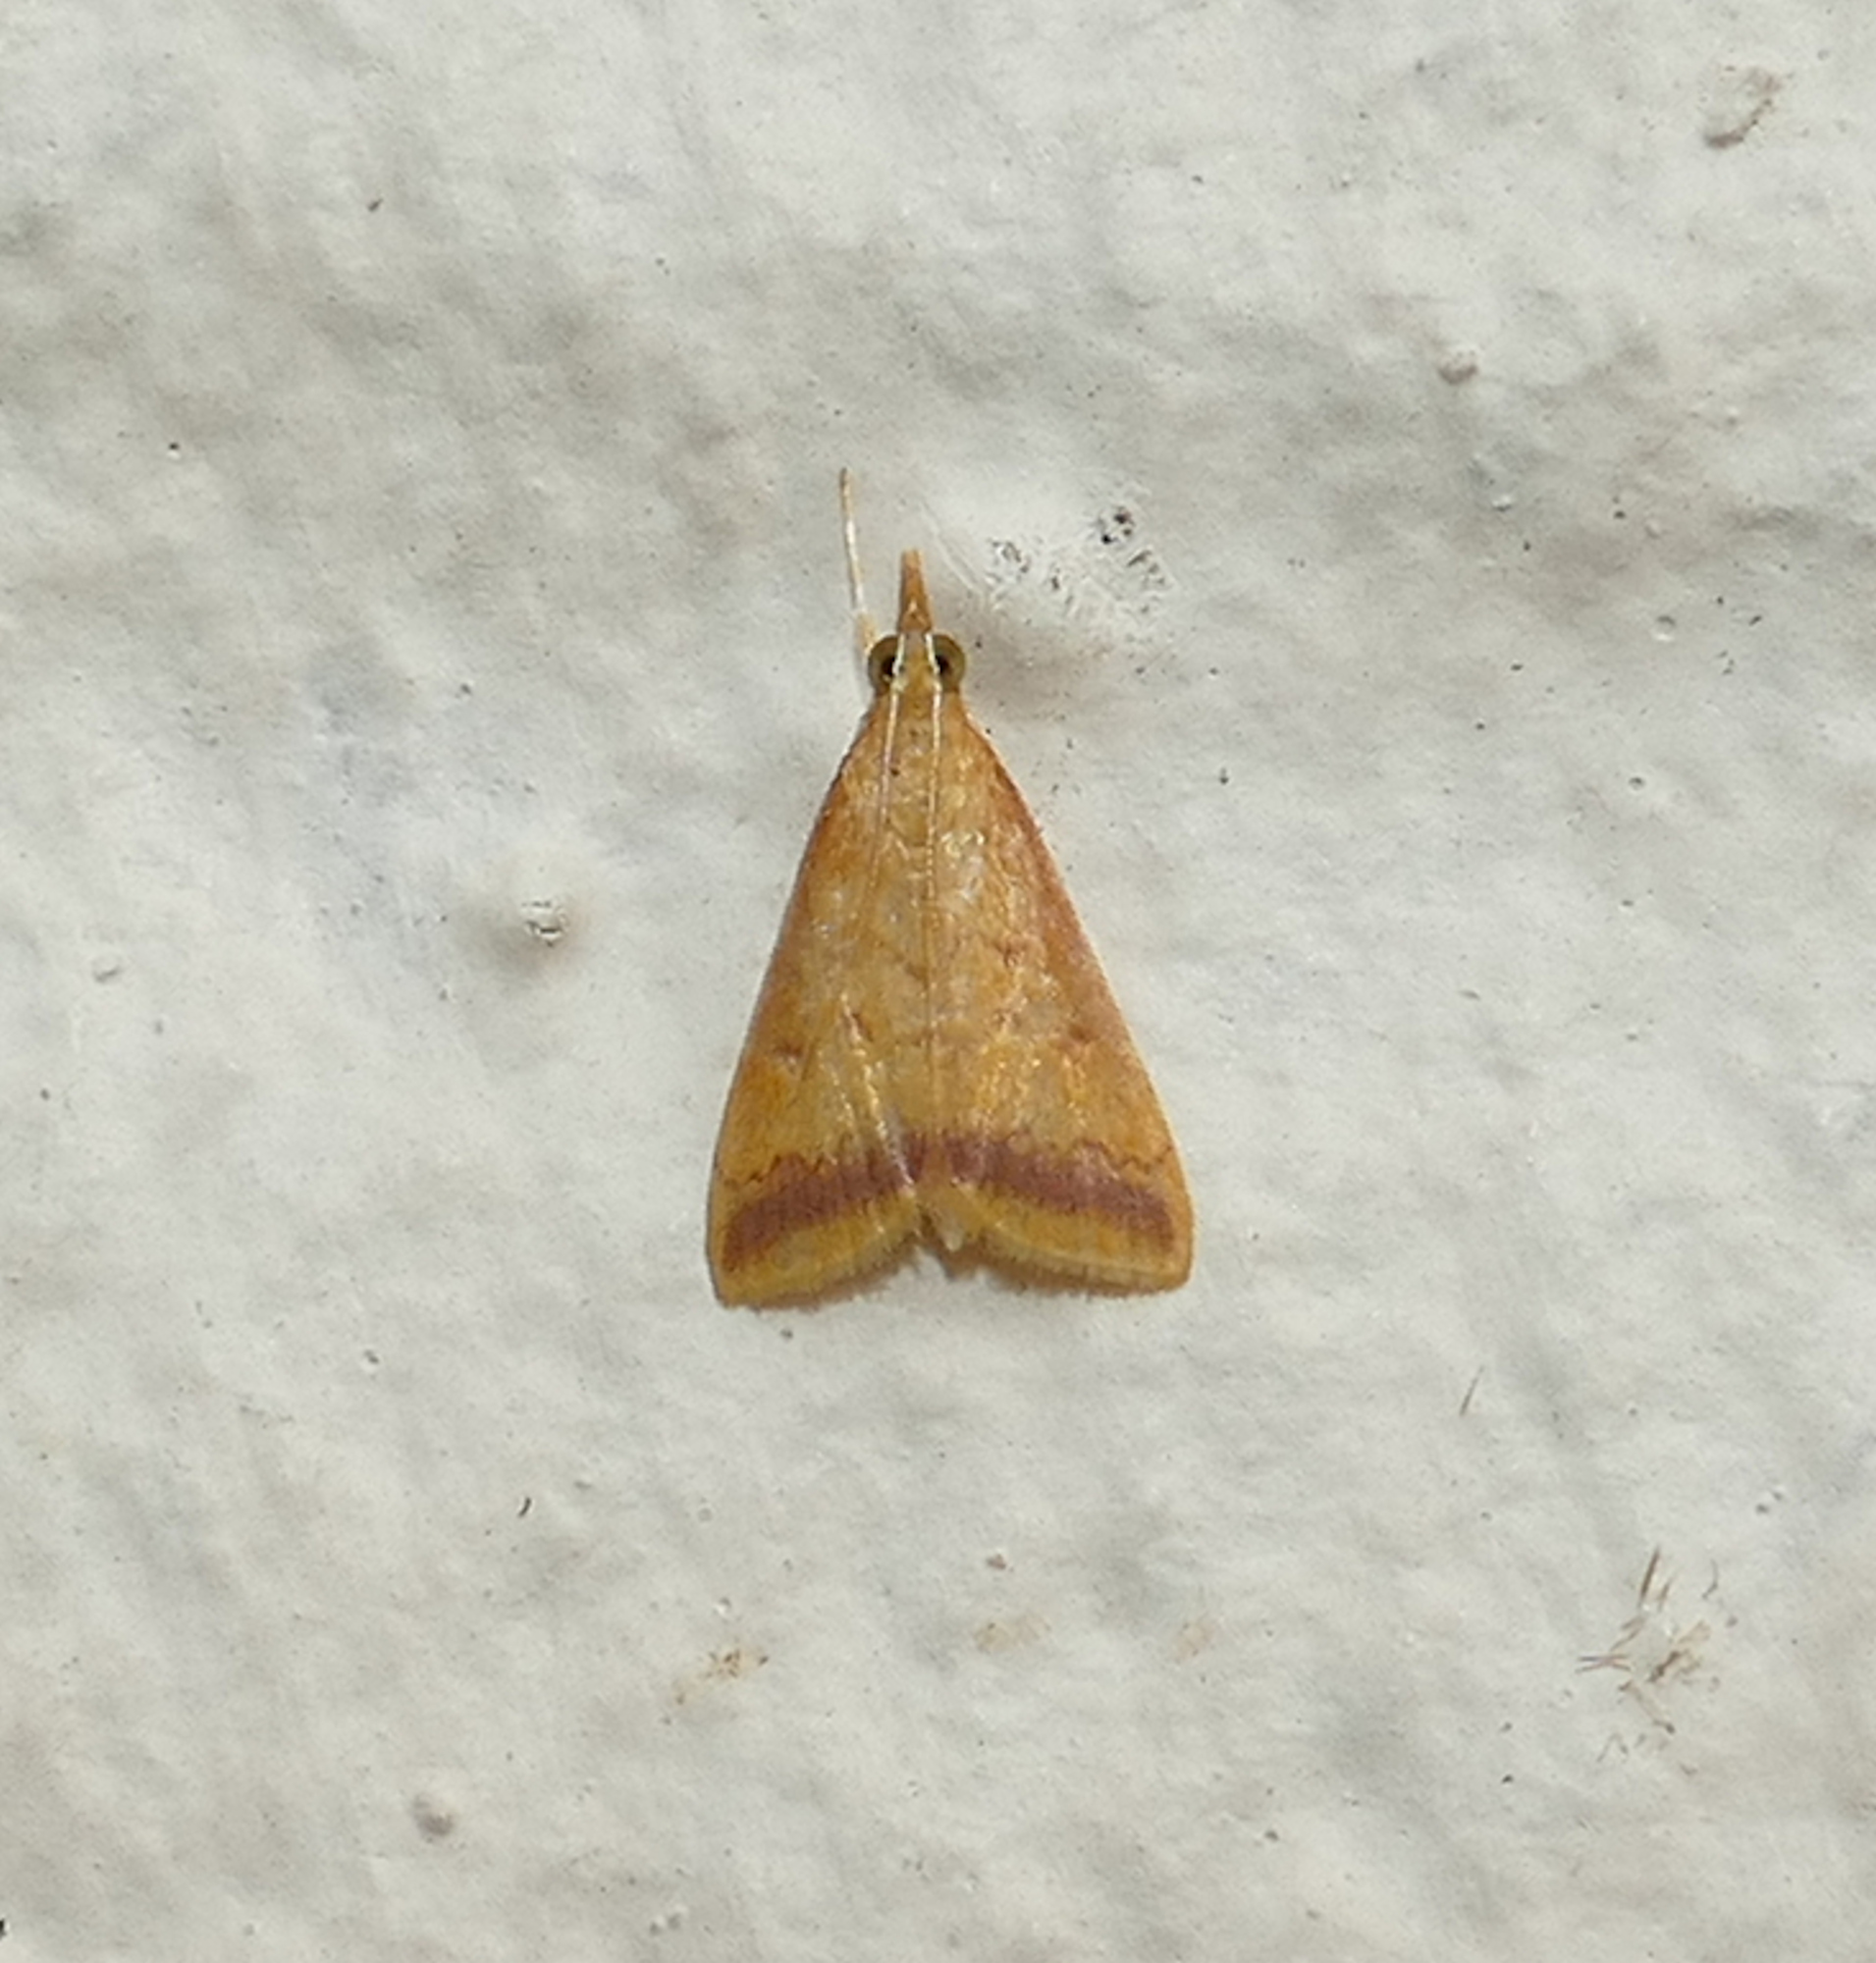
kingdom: Animalia
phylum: Arthropoda
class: Insecta
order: Lepidoptera
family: Crambidae
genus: Hyalorista
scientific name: Hyalorista taeniolalis
